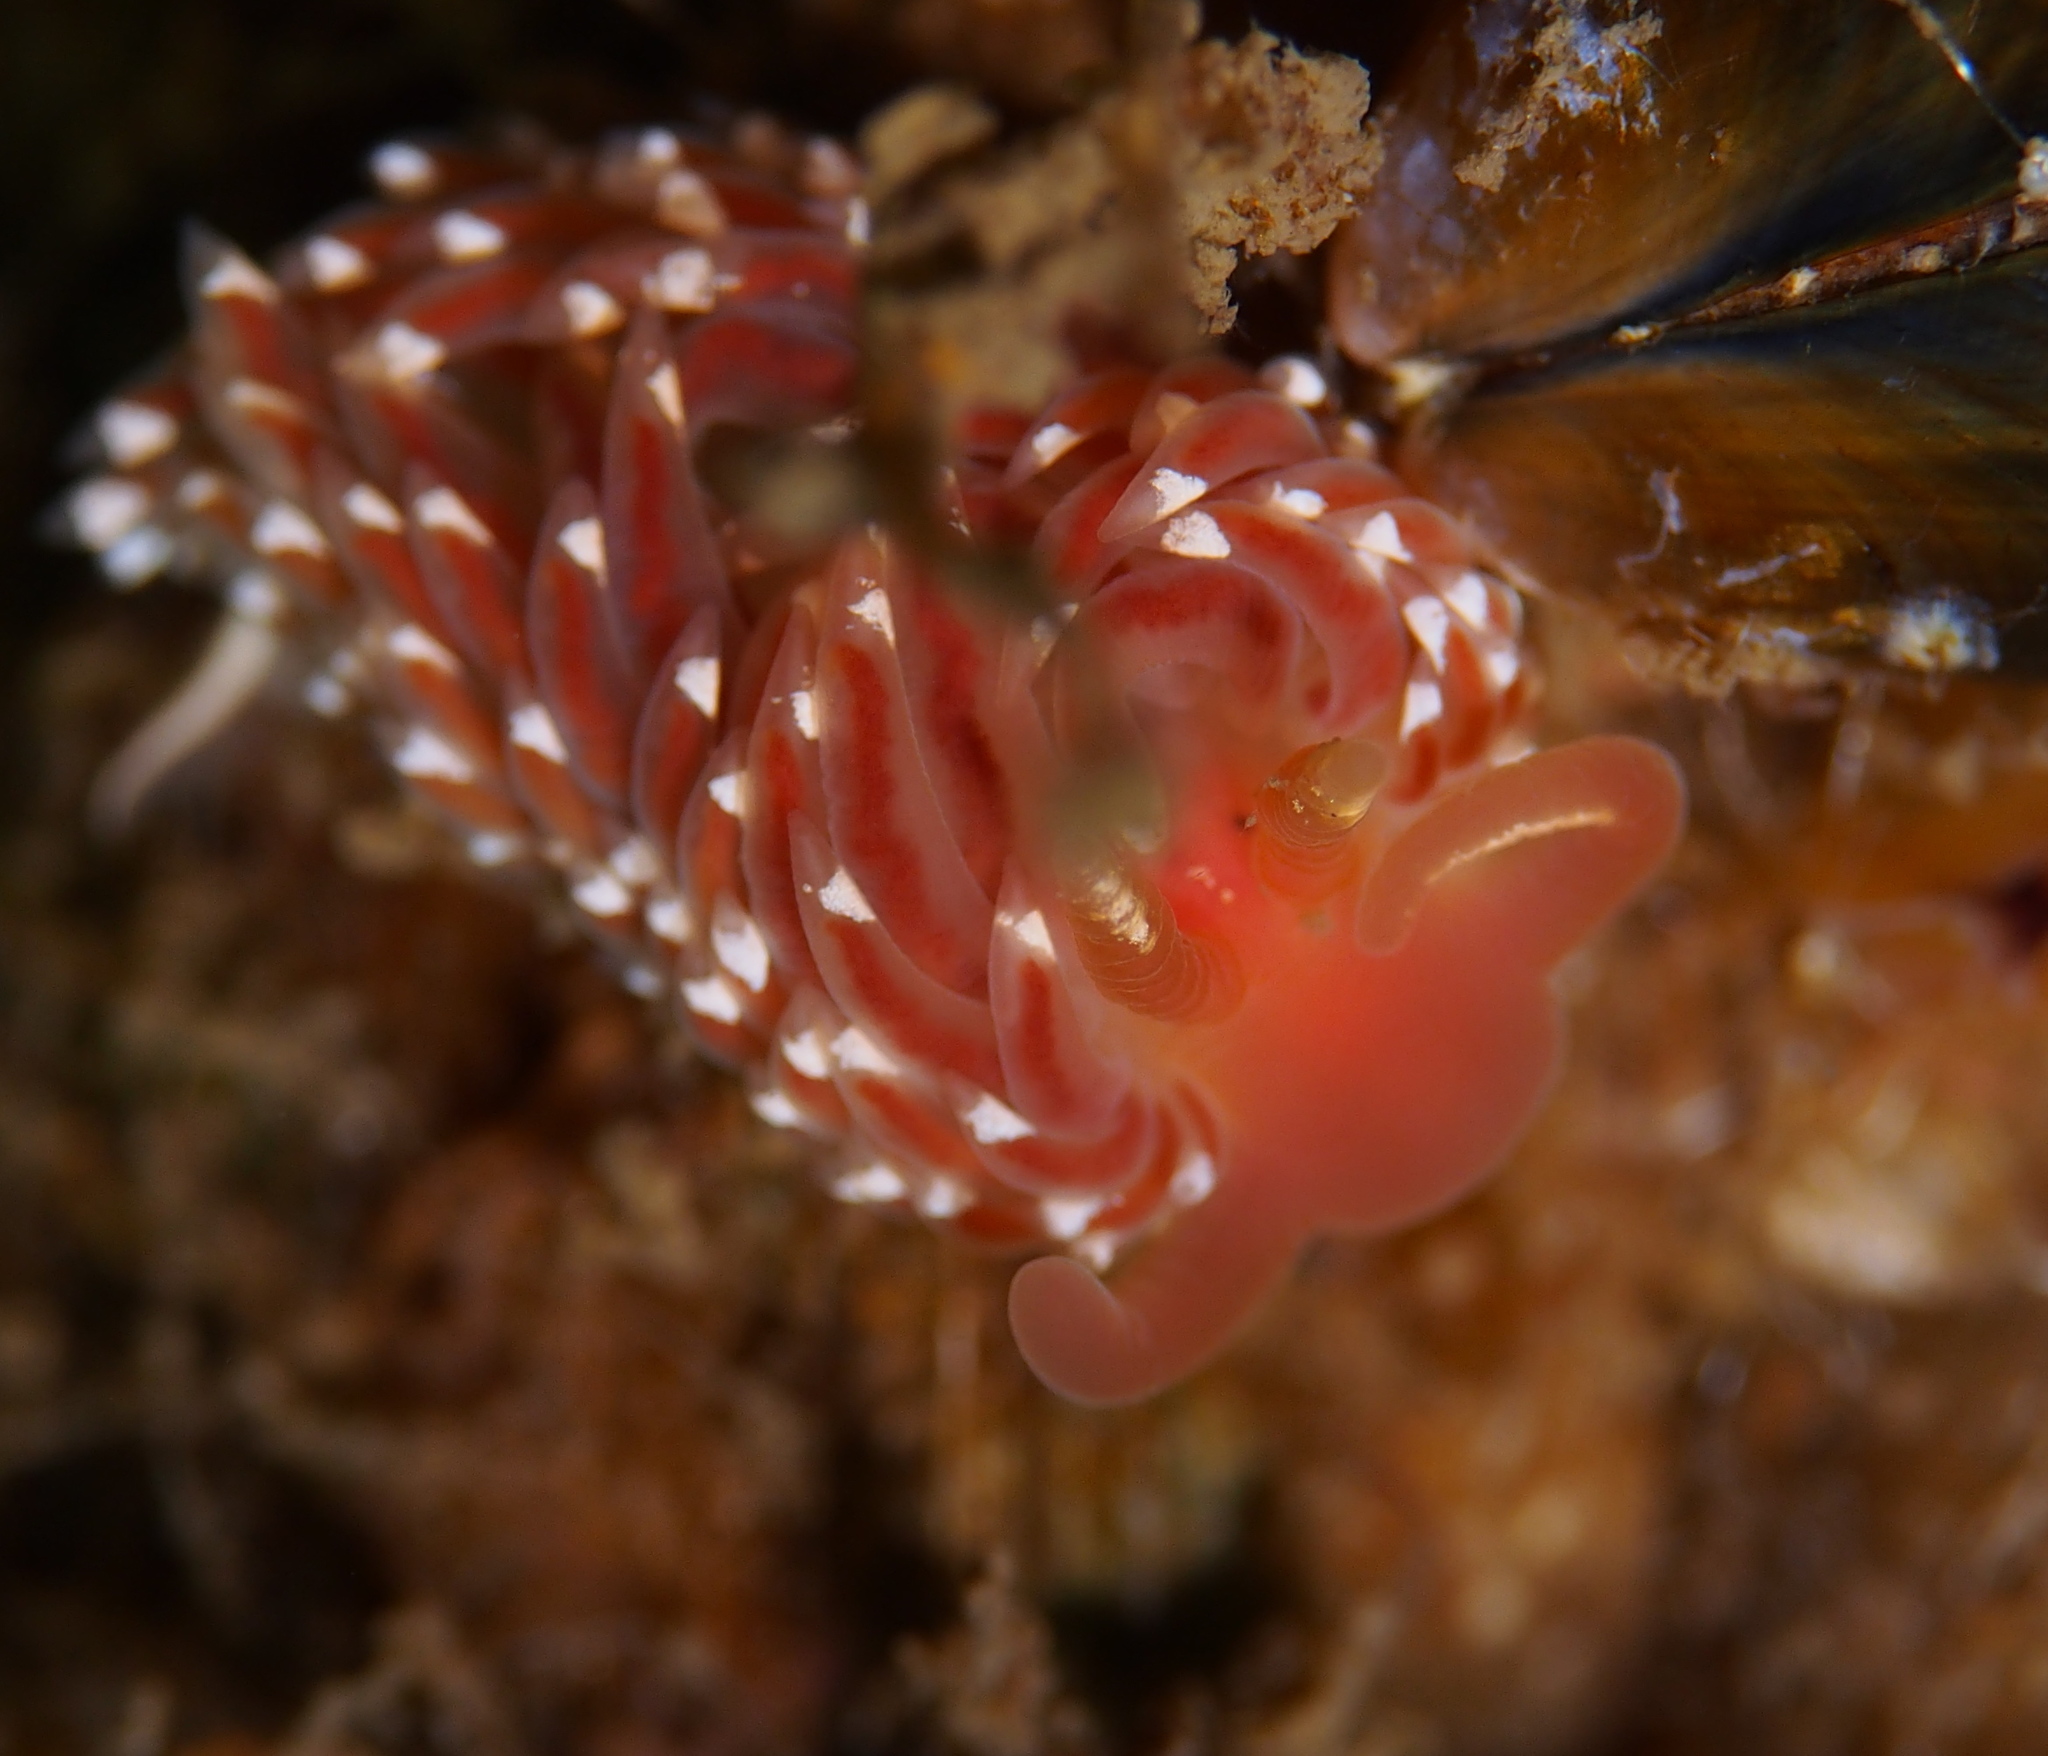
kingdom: Animalia
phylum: Mollusca
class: Gastropoda
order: Nudibranchia
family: Facelinidae
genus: Facelina
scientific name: Facelina bostoniensis
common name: Boston facelina
